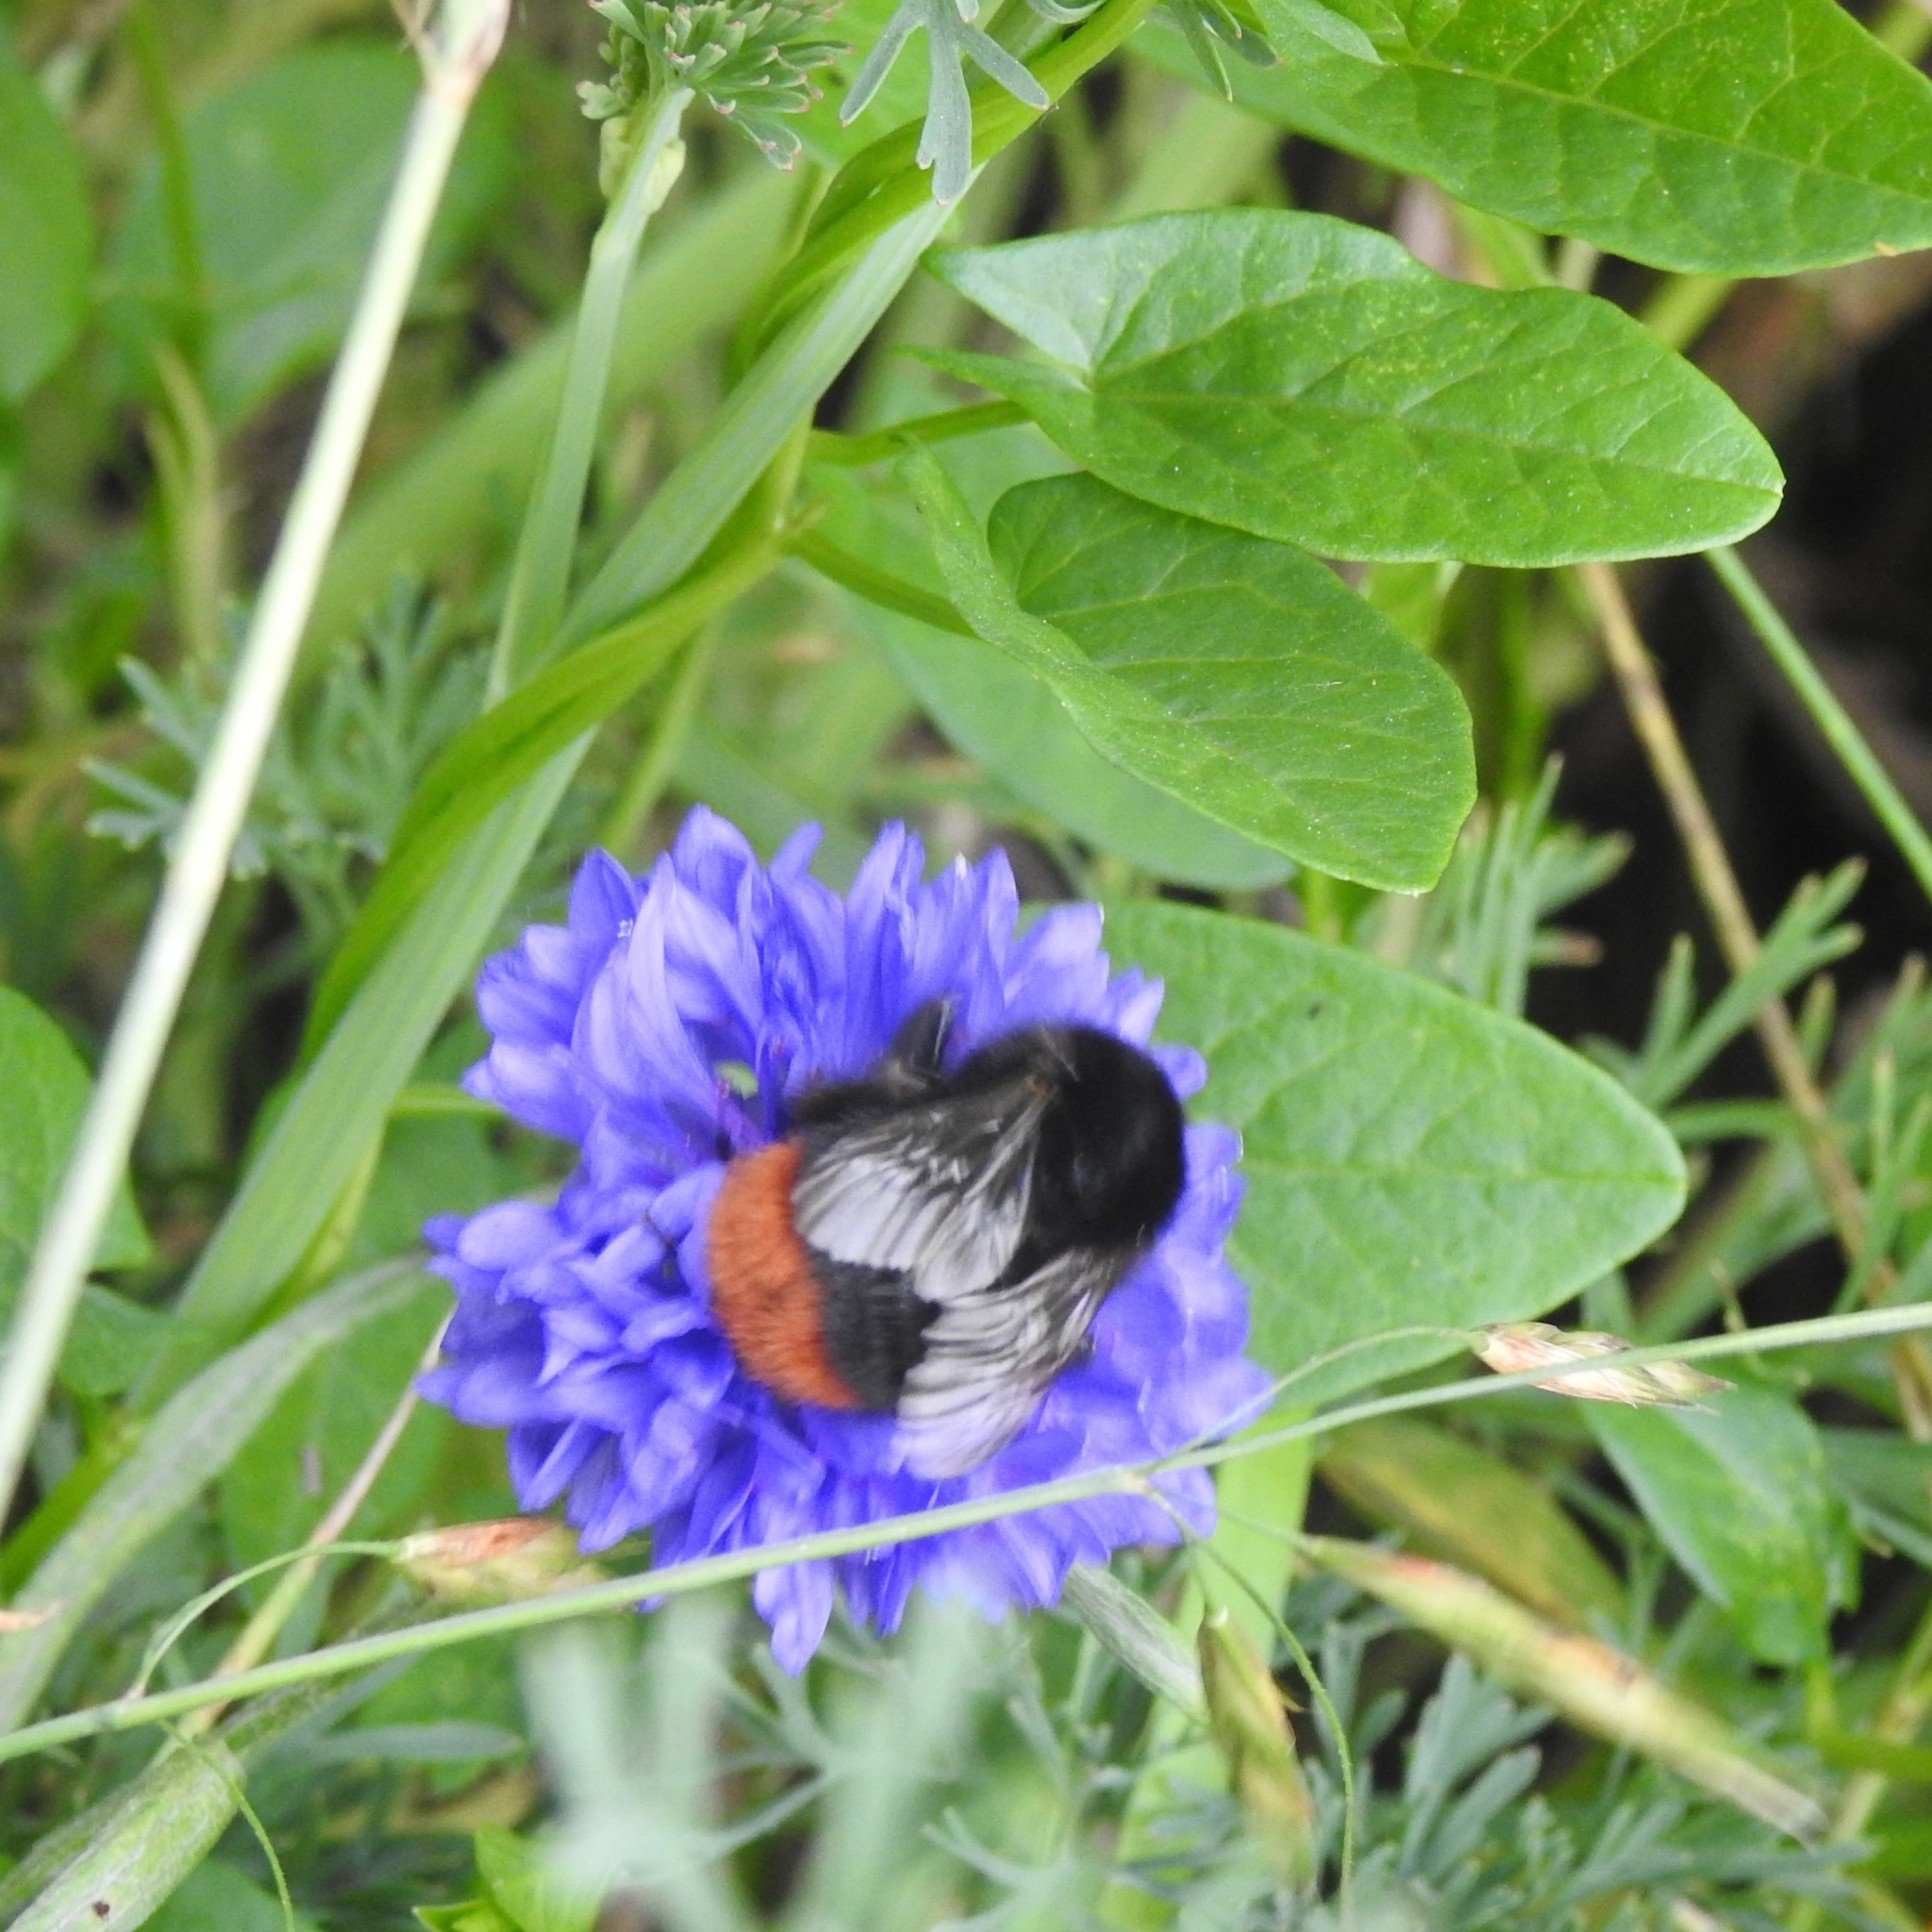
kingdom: Animalia
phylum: Arthropoda
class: Insecta
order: Hymenoptera
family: Apidae
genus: Bombus
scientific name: Bombus lapidarius
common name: Large red-tailed humble-bee
